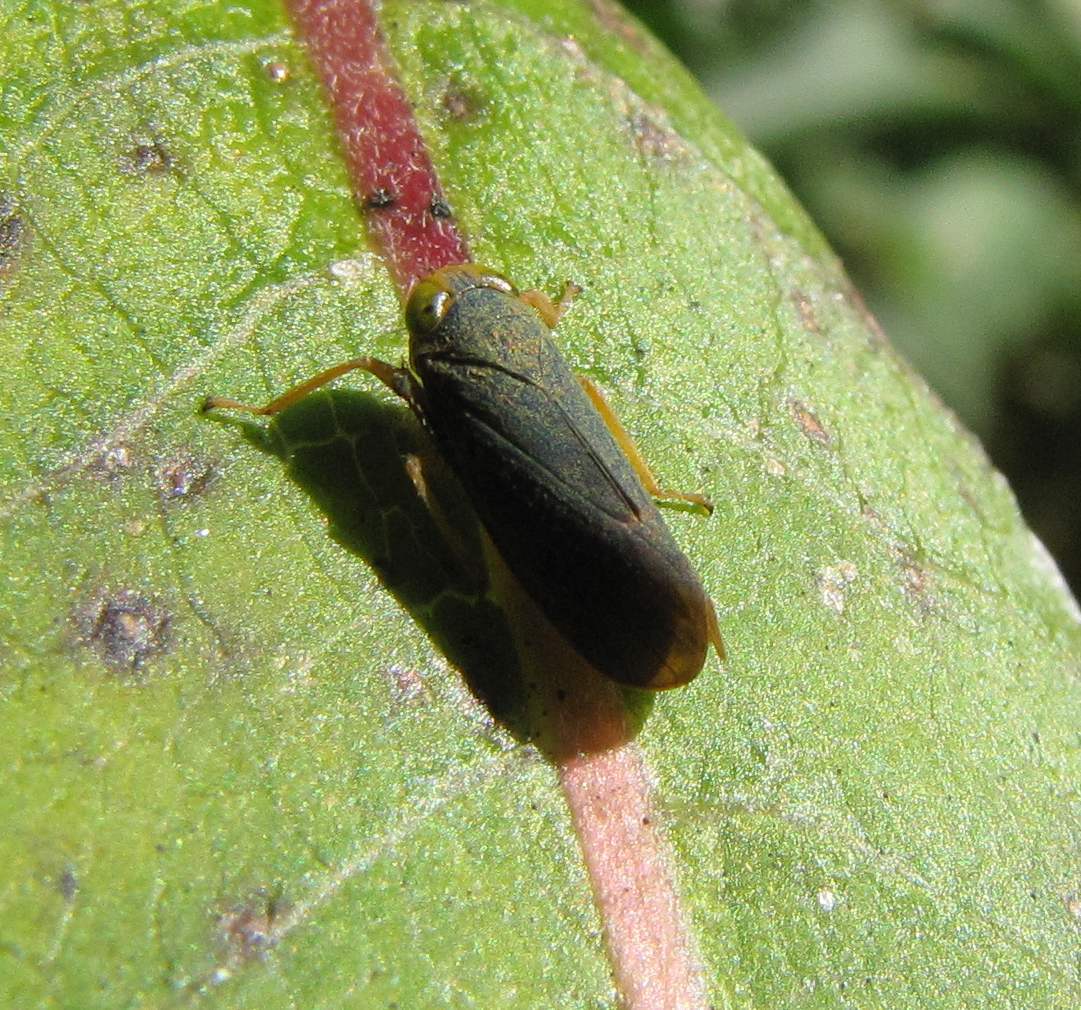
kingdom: Animalia
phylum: Arthropoda
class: Insecta
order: Hemiptera
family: Cicadellidae
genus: Jikradia
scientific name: Jikradia olitoria
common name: Coppery leafhopper
